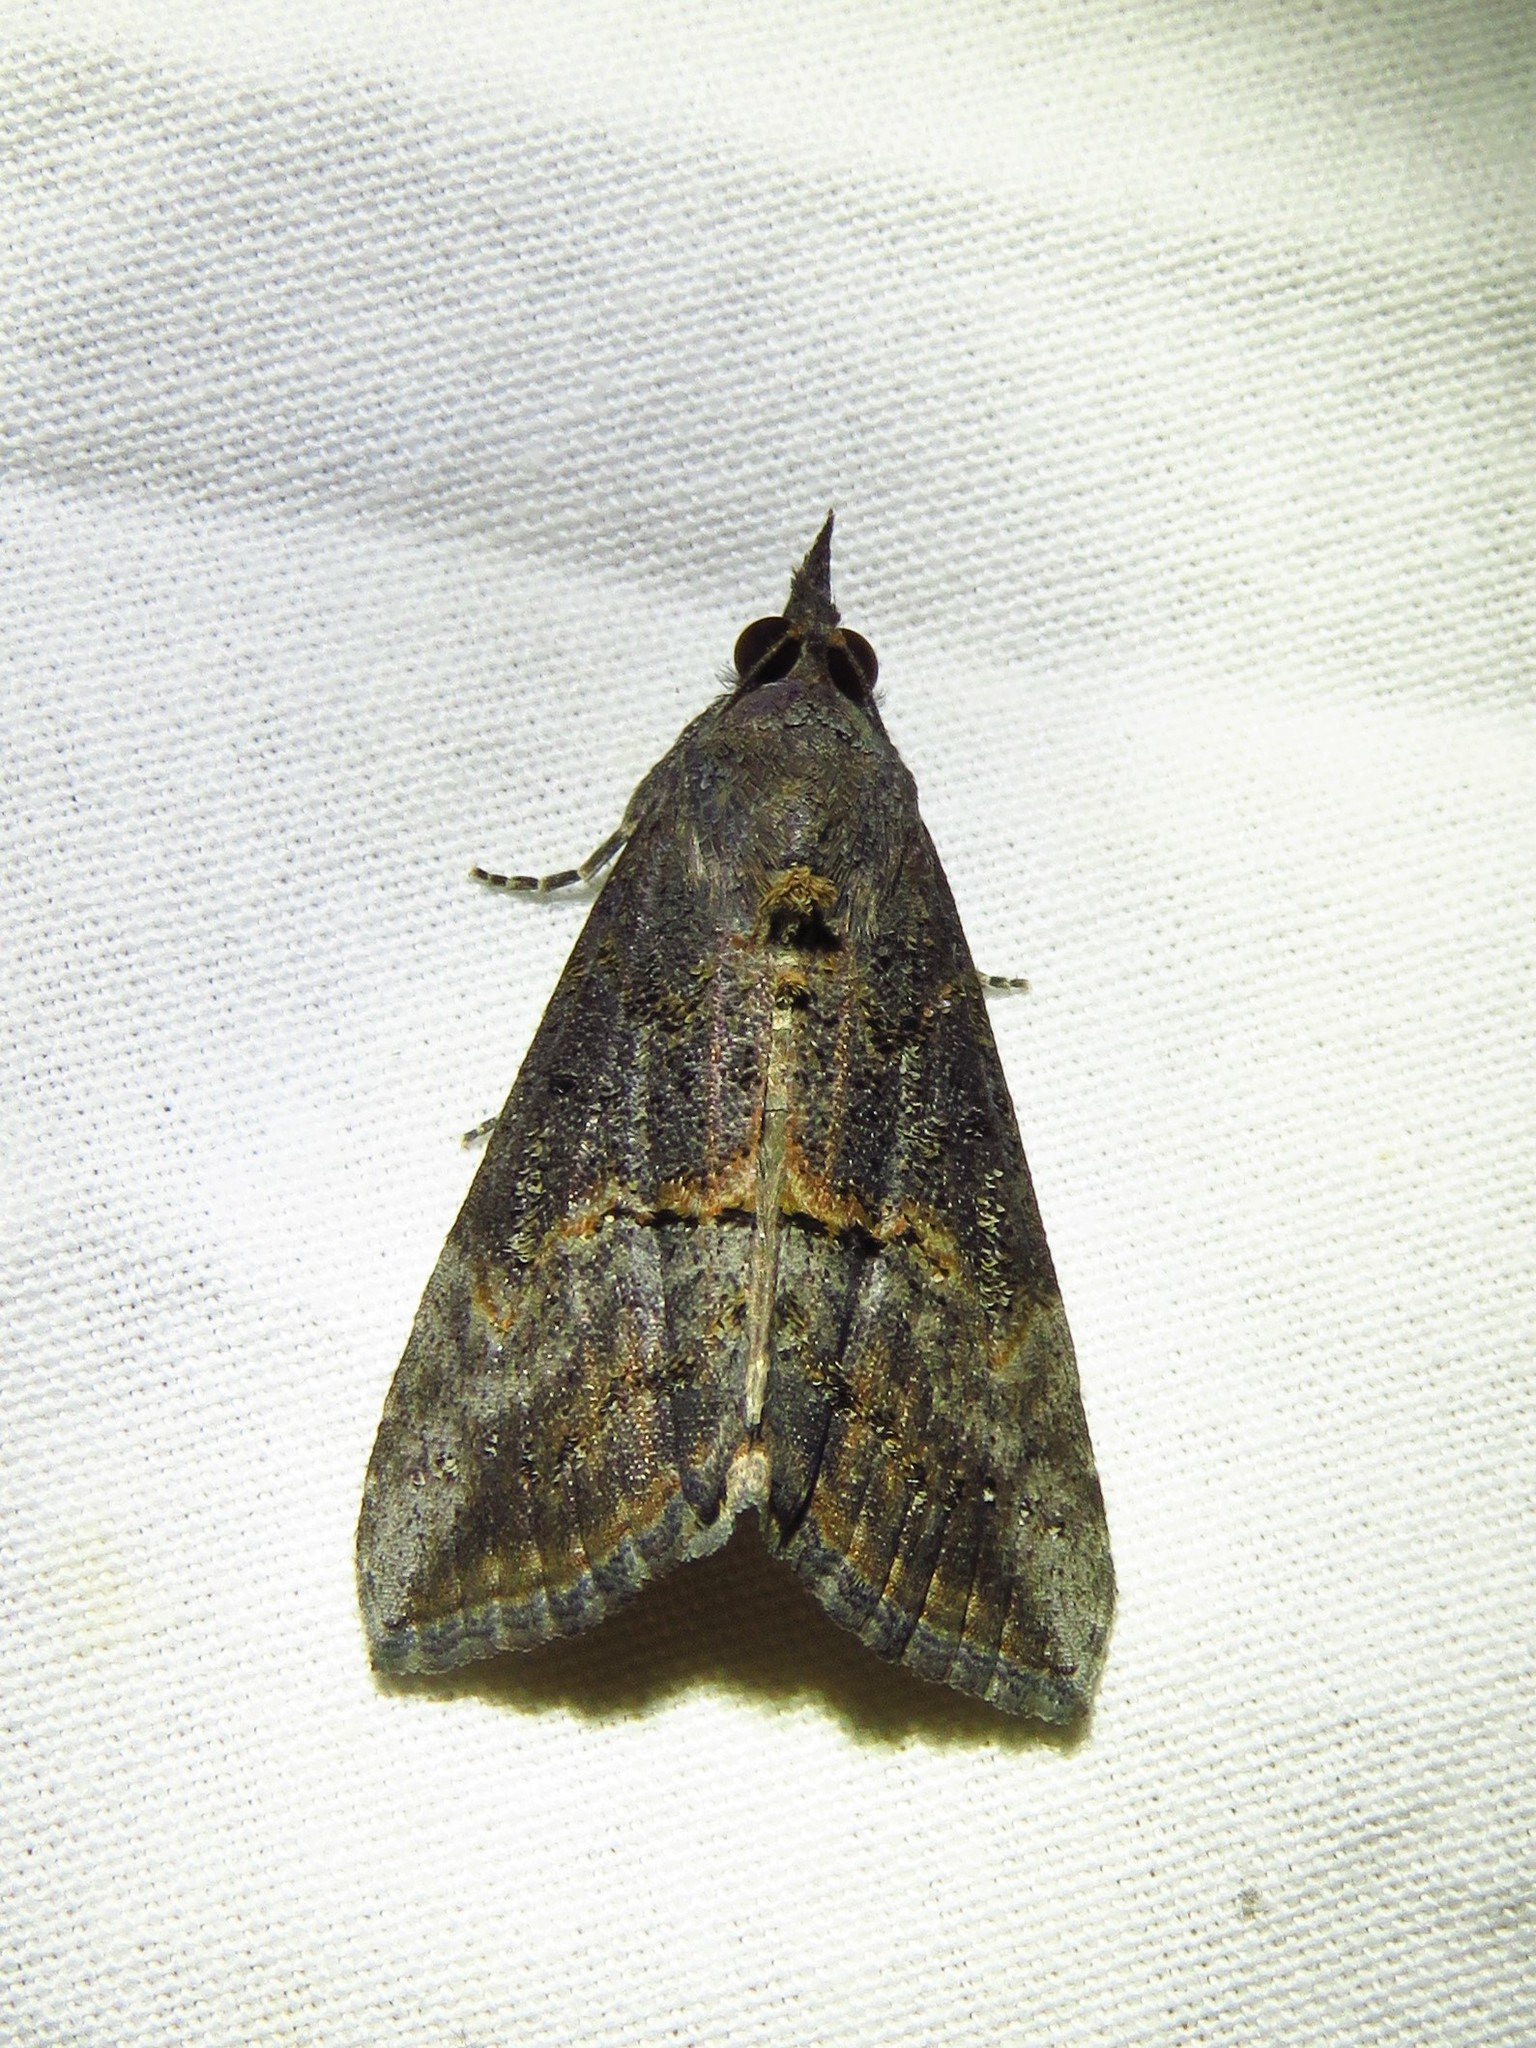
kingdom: Animalia
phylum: Arthropoda
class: Insecta
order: Lepidoptera
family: Erebidae
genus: Hypena
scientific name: Hypena scabra
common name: Green cloverworm
